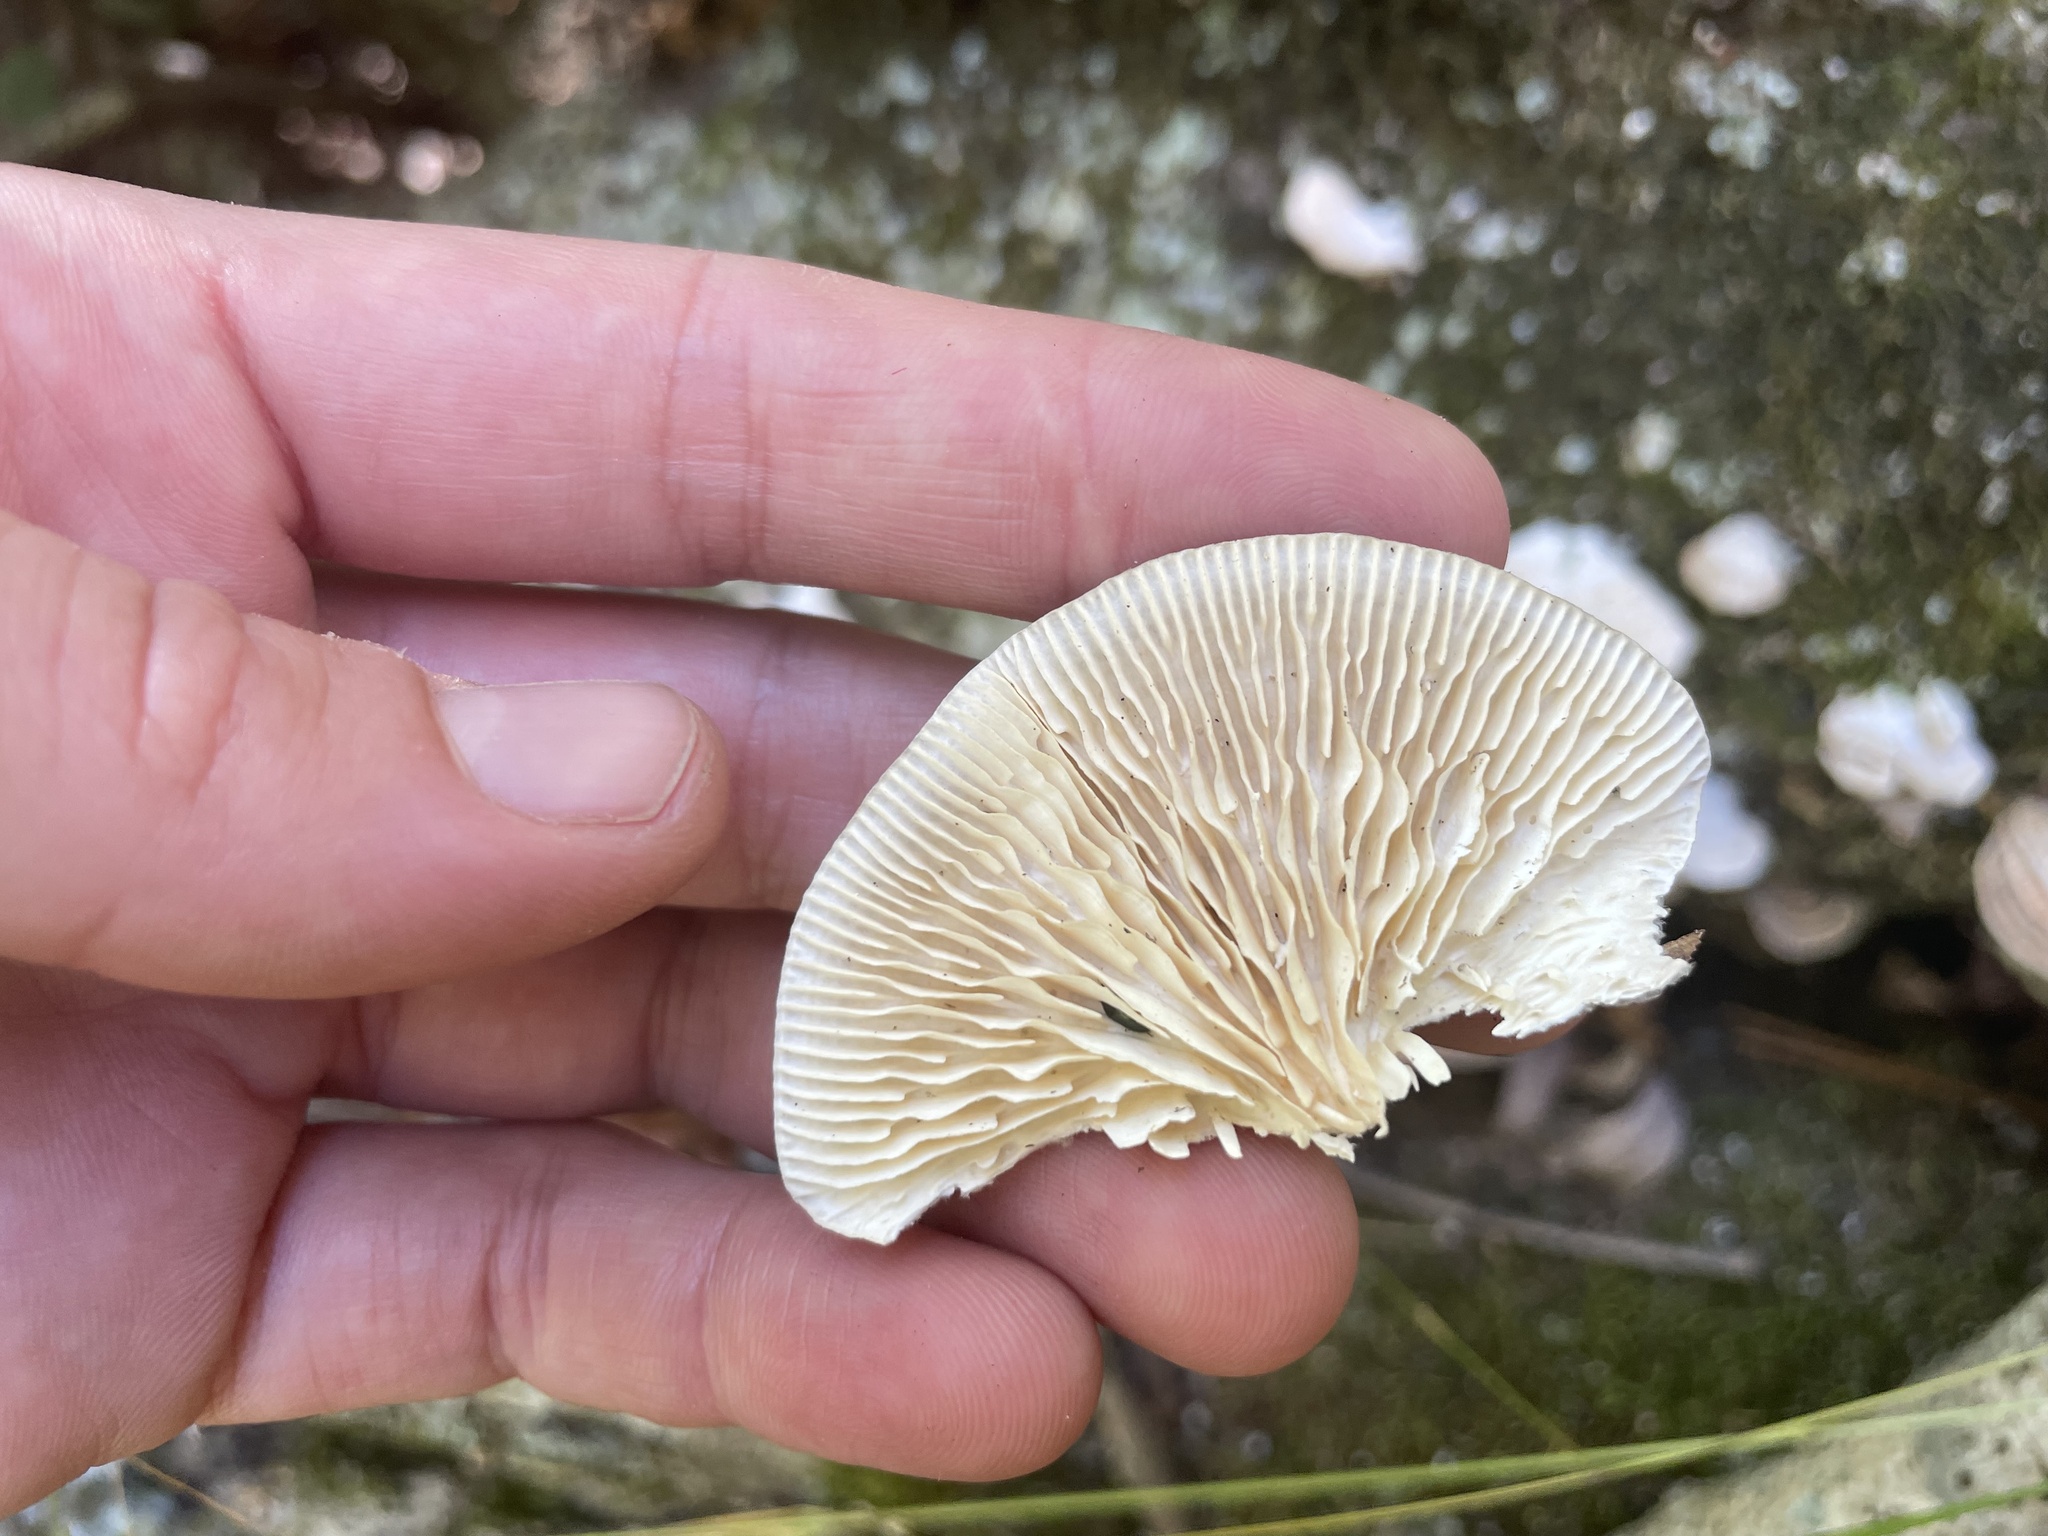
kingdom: Fungi
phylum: Basidiomycota
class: Agaricomycetes
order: Polyporales
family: Polyporaceae
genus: Lenzites
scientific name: Lenzites betulinus
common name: Birch mazegill
